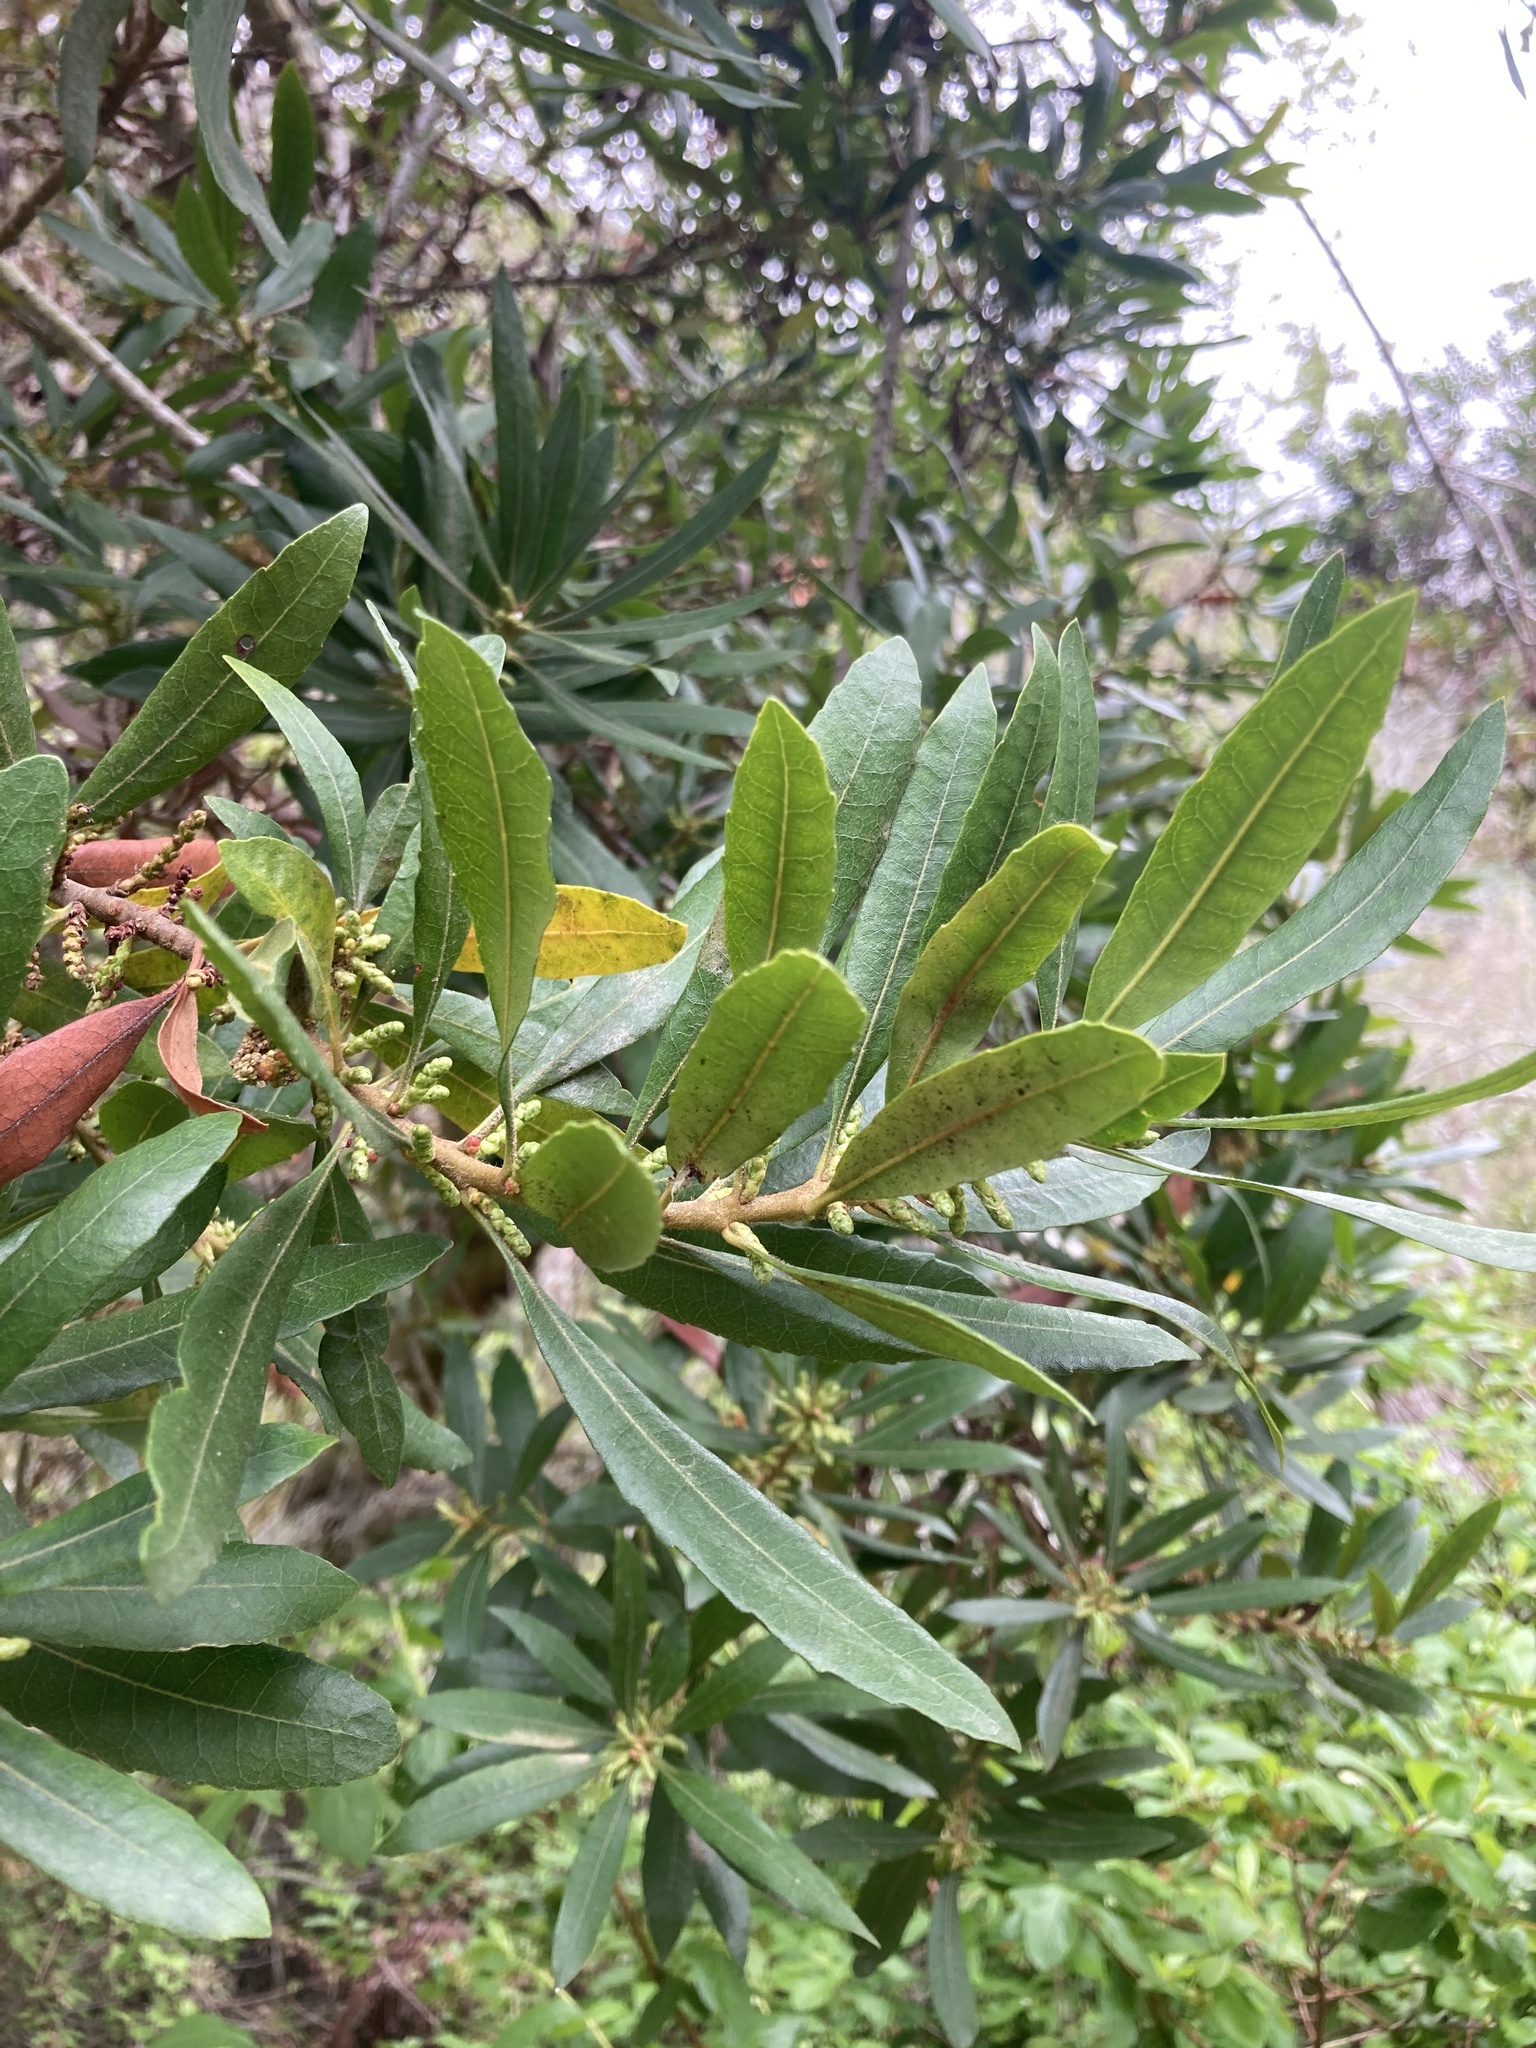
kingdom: Plantae
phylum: Tracheophyta
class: Magnoliopsida
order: Fagales
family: Myricaceae
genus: Morella
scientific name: Morella californica
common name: California wax-myrtle
